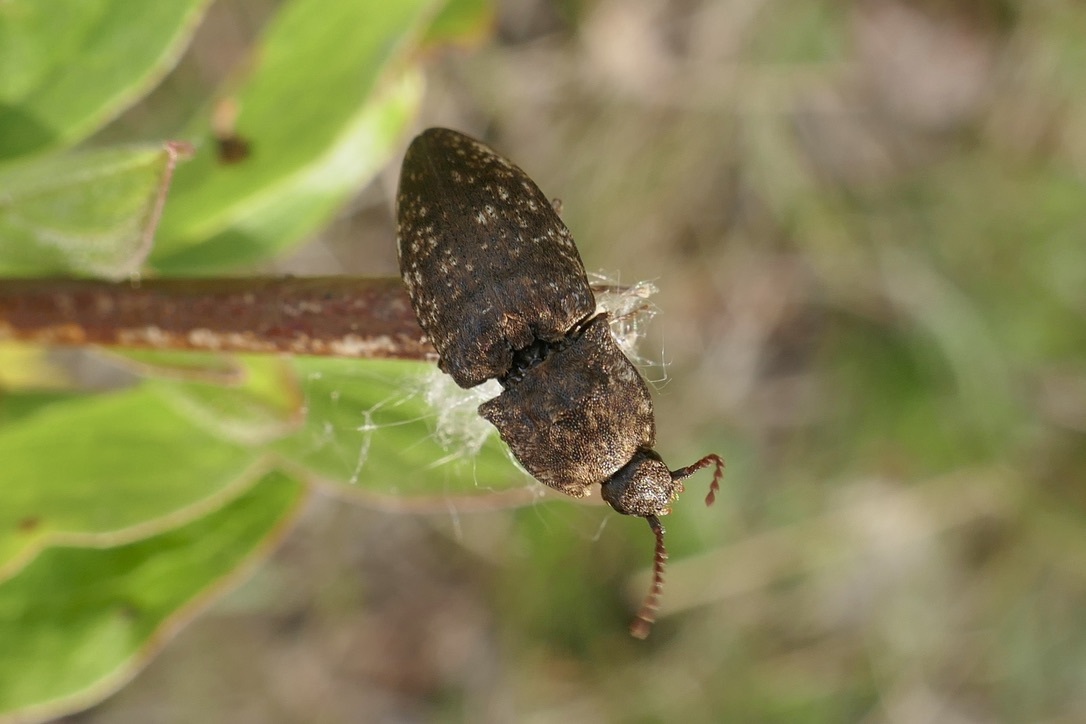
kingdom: Animalia
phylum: Arthropoda
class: Insecta
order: Coleoptera
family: Elateridae
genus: Agrypnus
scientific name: Agrypnus murinus
